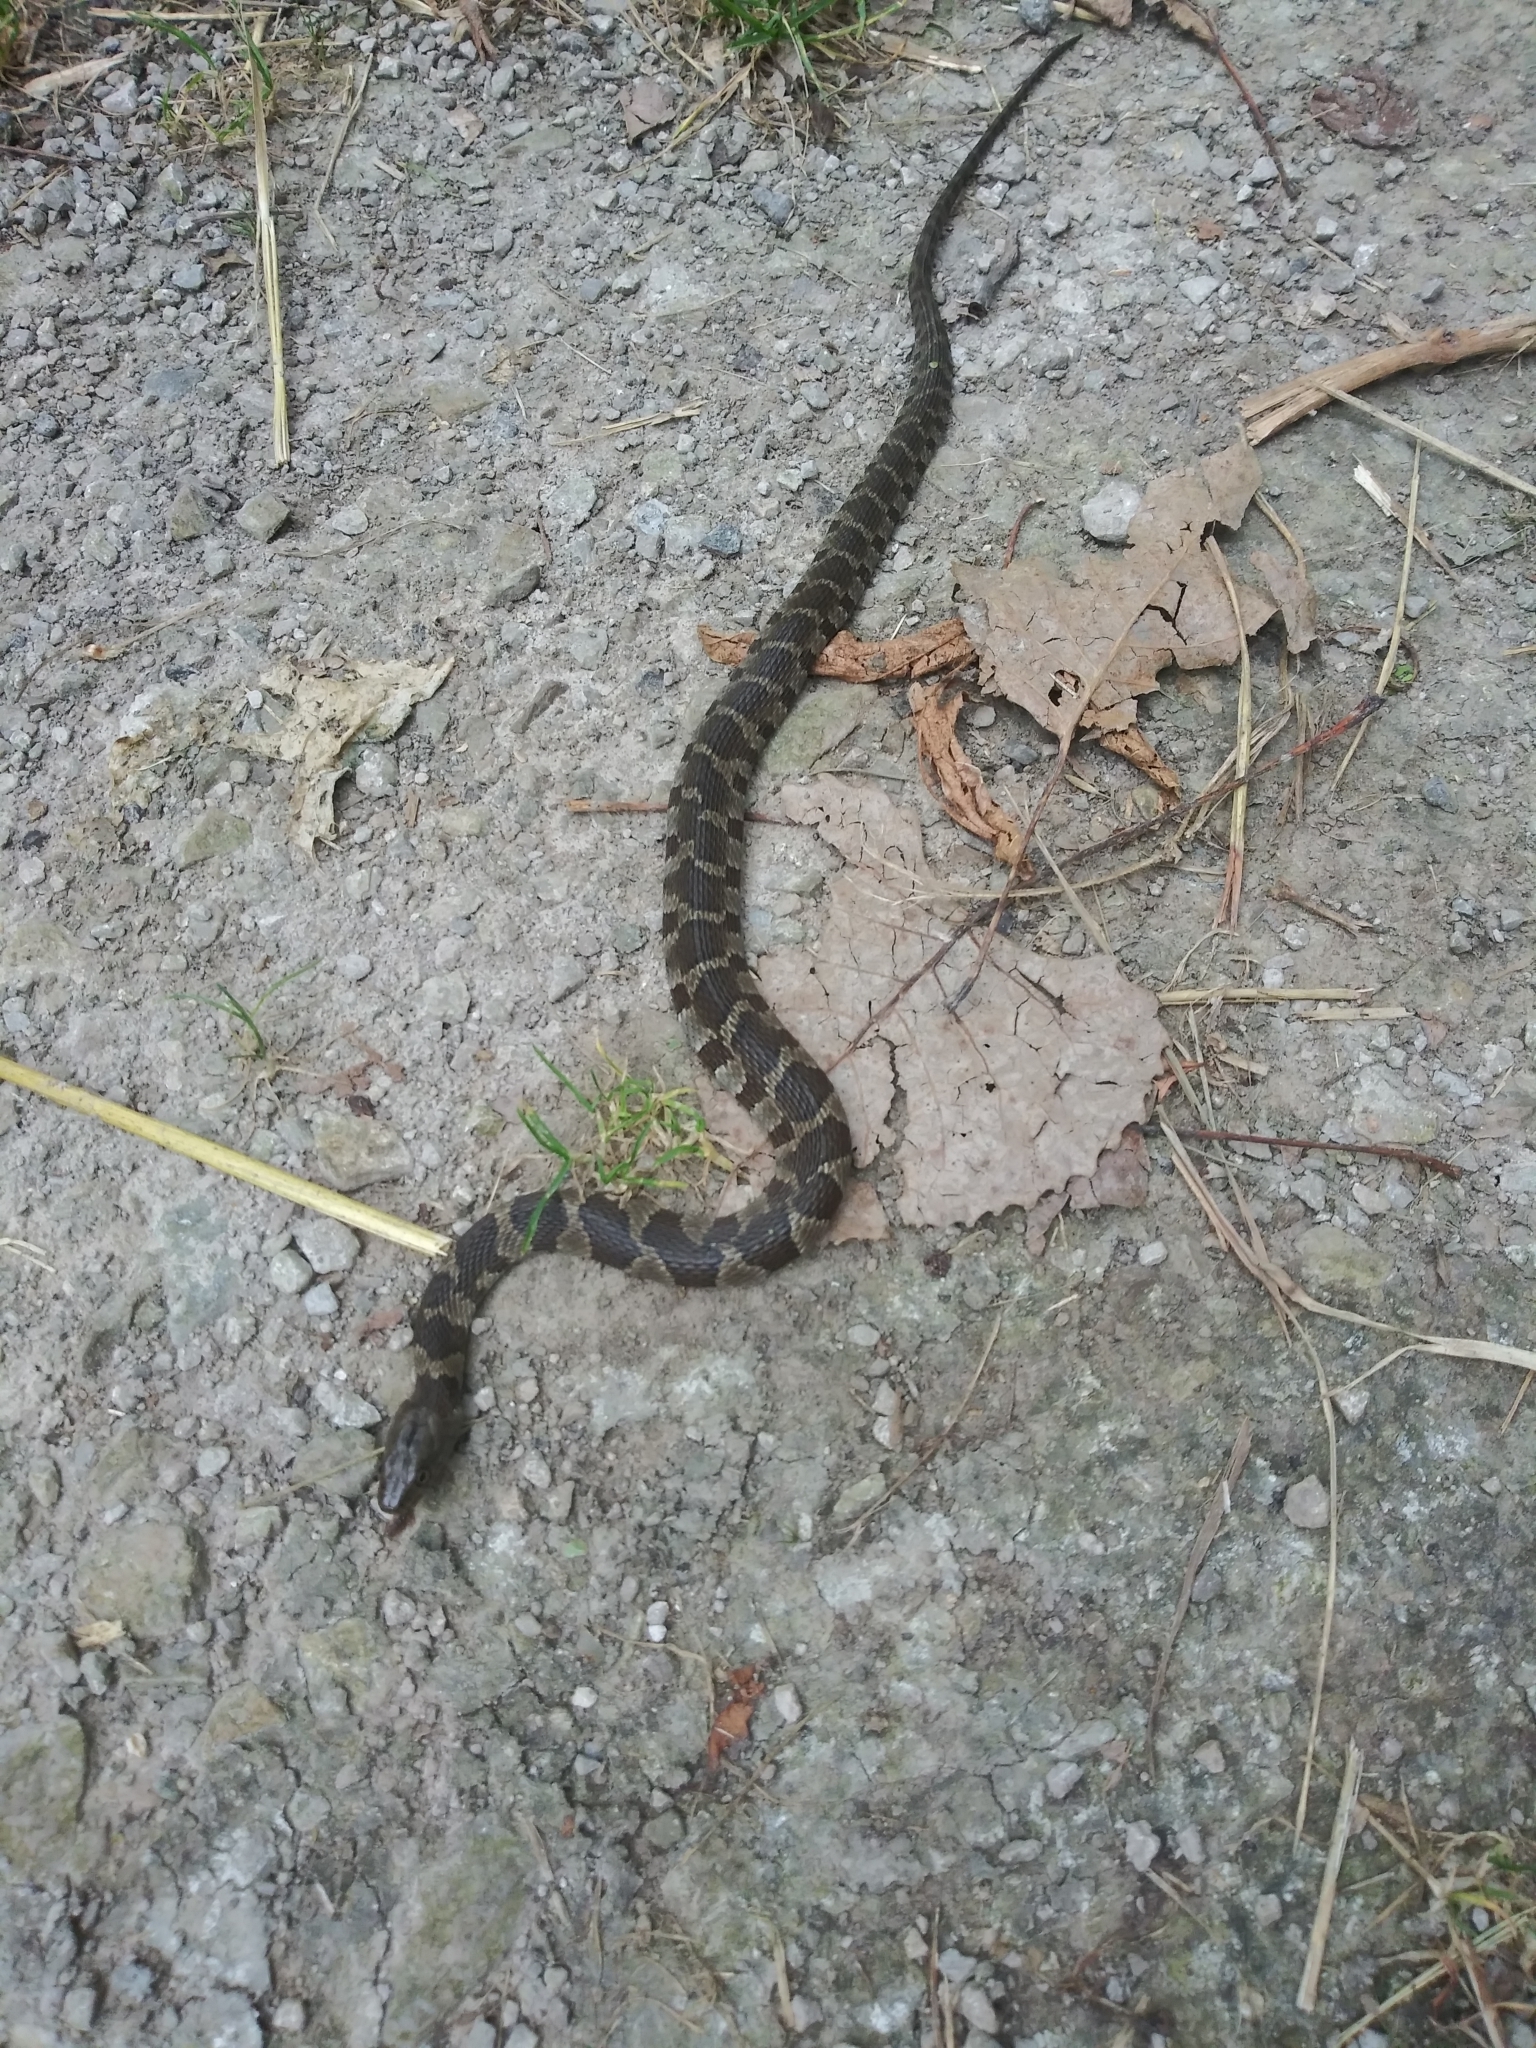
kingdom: Animalia
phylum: Chordata
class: Squamata
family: Colubridae
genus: Nerodia
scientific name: Nerodia sipedon
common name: Northern water snake
